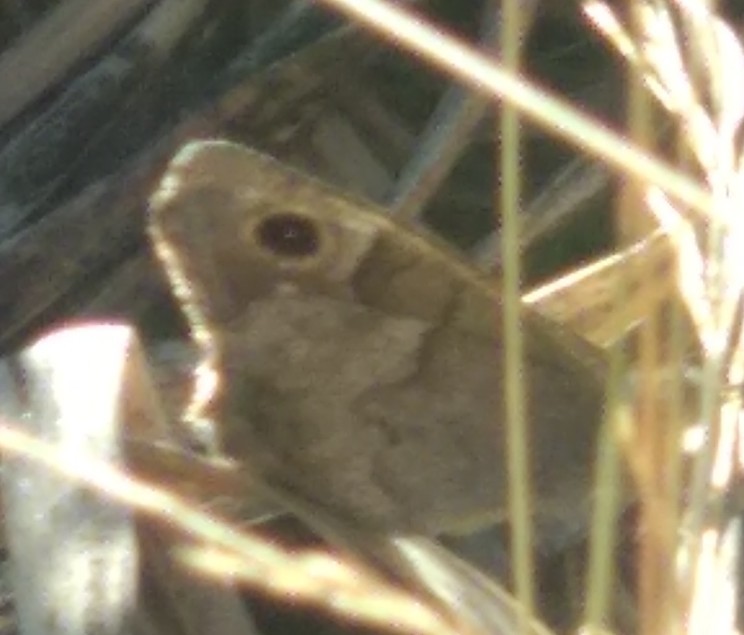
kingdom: Animalia
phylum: Arthropoda
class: Insecta
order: Lepidoptera
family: Nymphalidae
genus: Hipparchia
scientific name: Hipparchia statilinus
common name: Tree grayling
